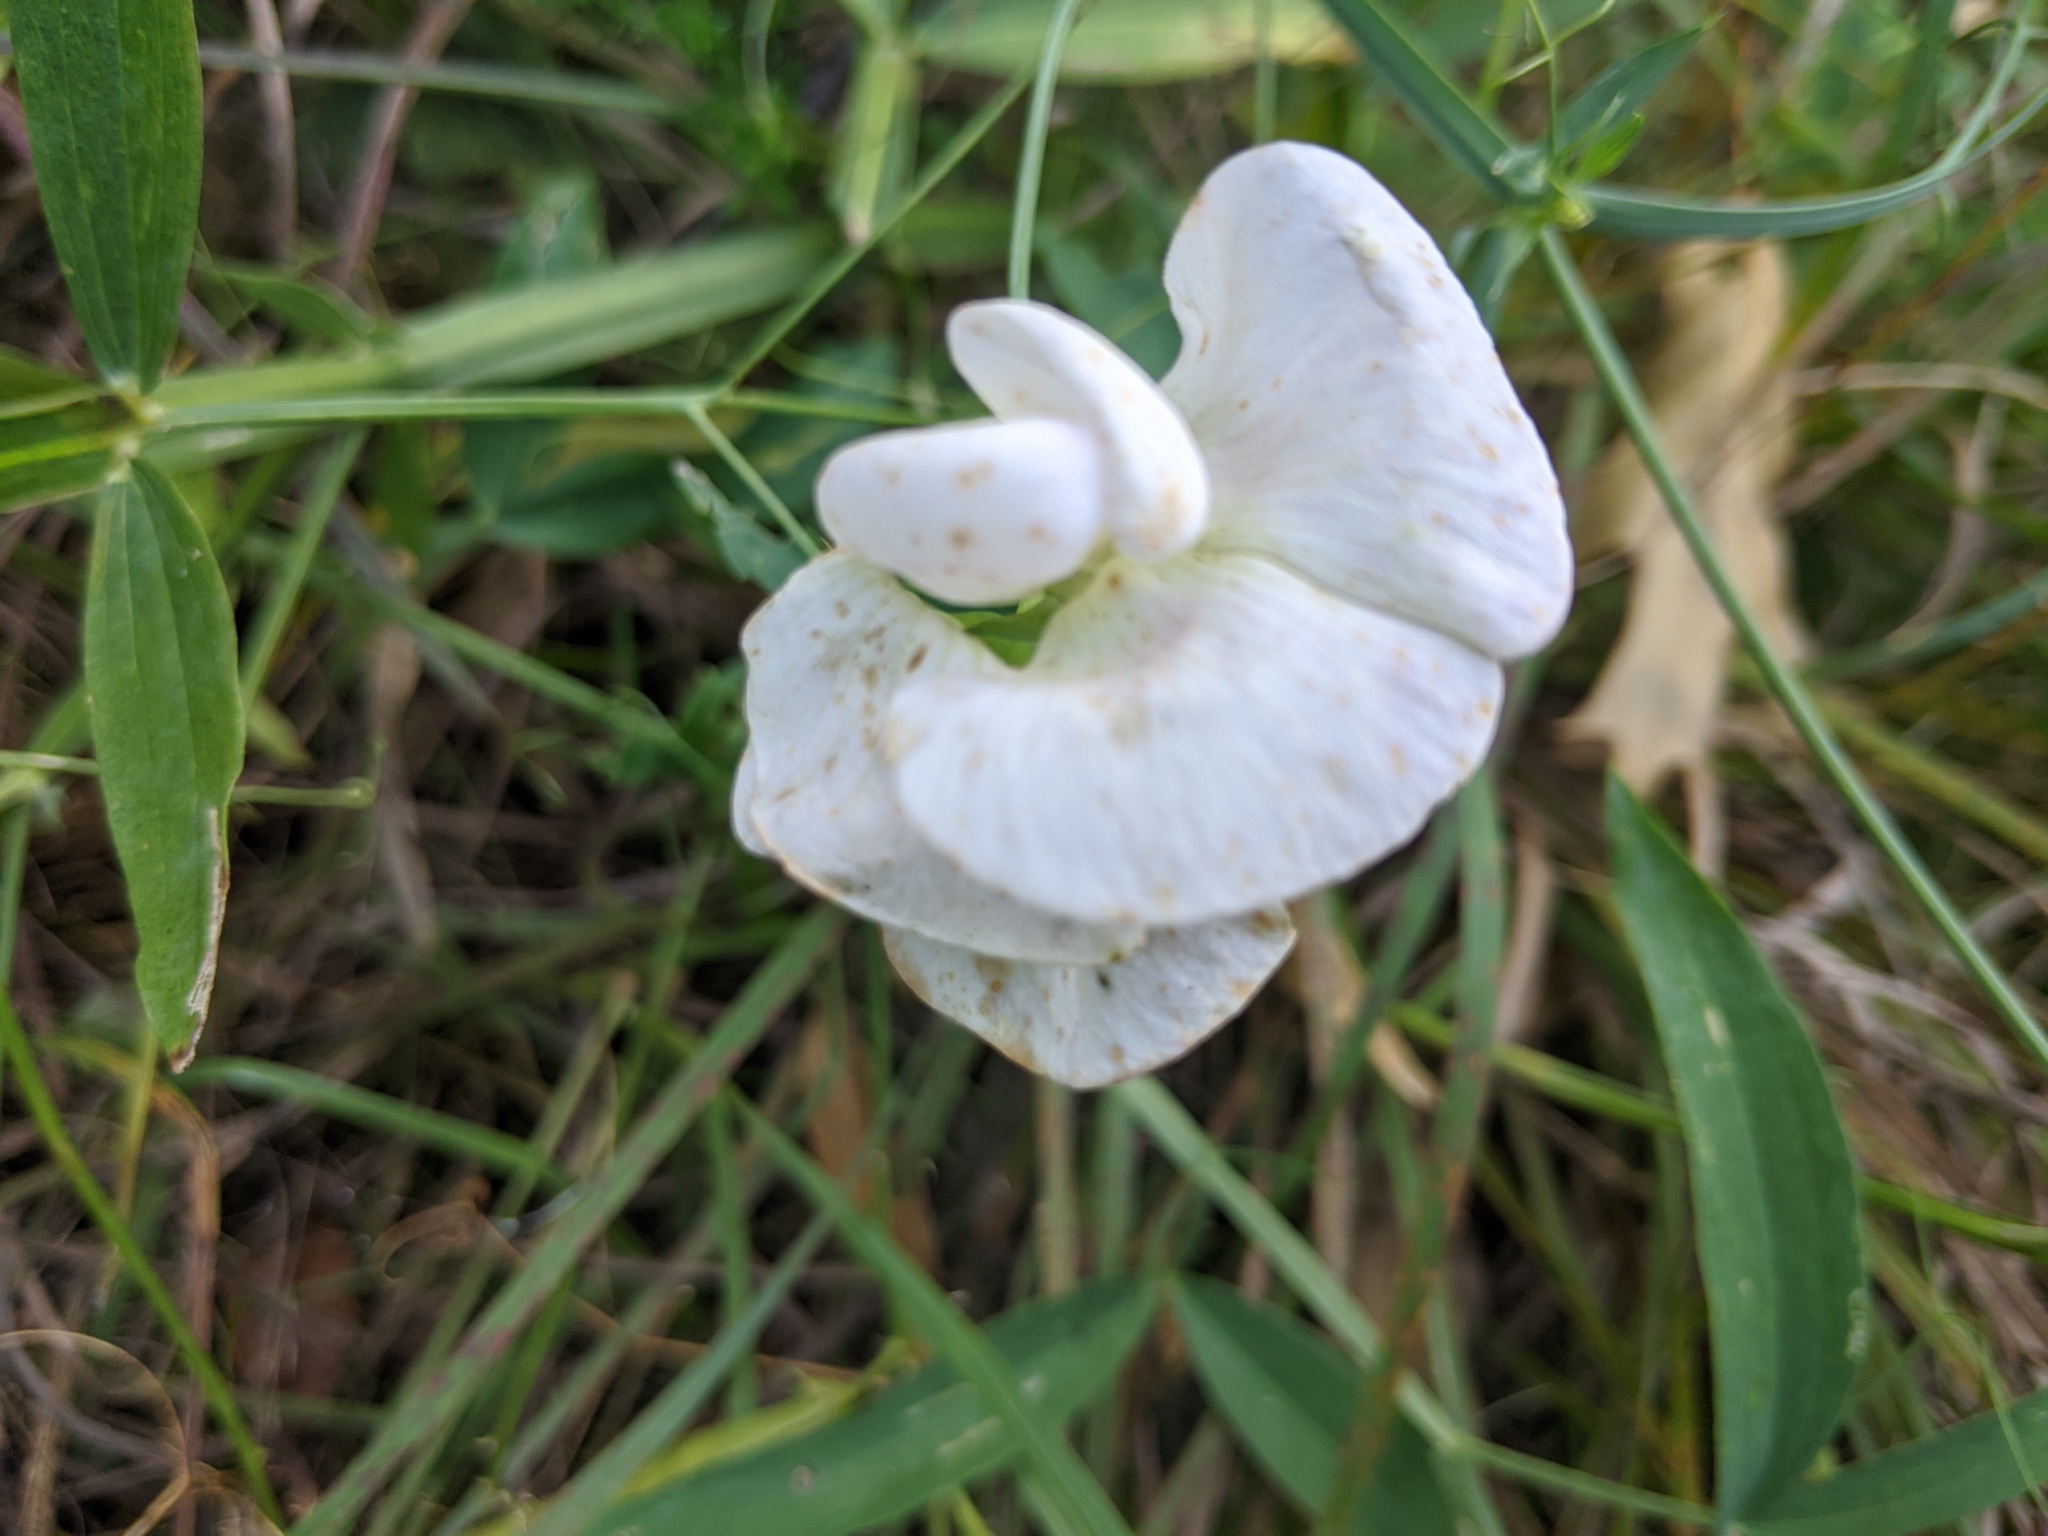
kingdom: Plantae
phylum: Tracheophyta
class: Magnoliopsida
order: Fabales
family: Fabaceae
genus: Lathyrus
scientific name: Lathyrus latifolius
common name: Perennial pea
